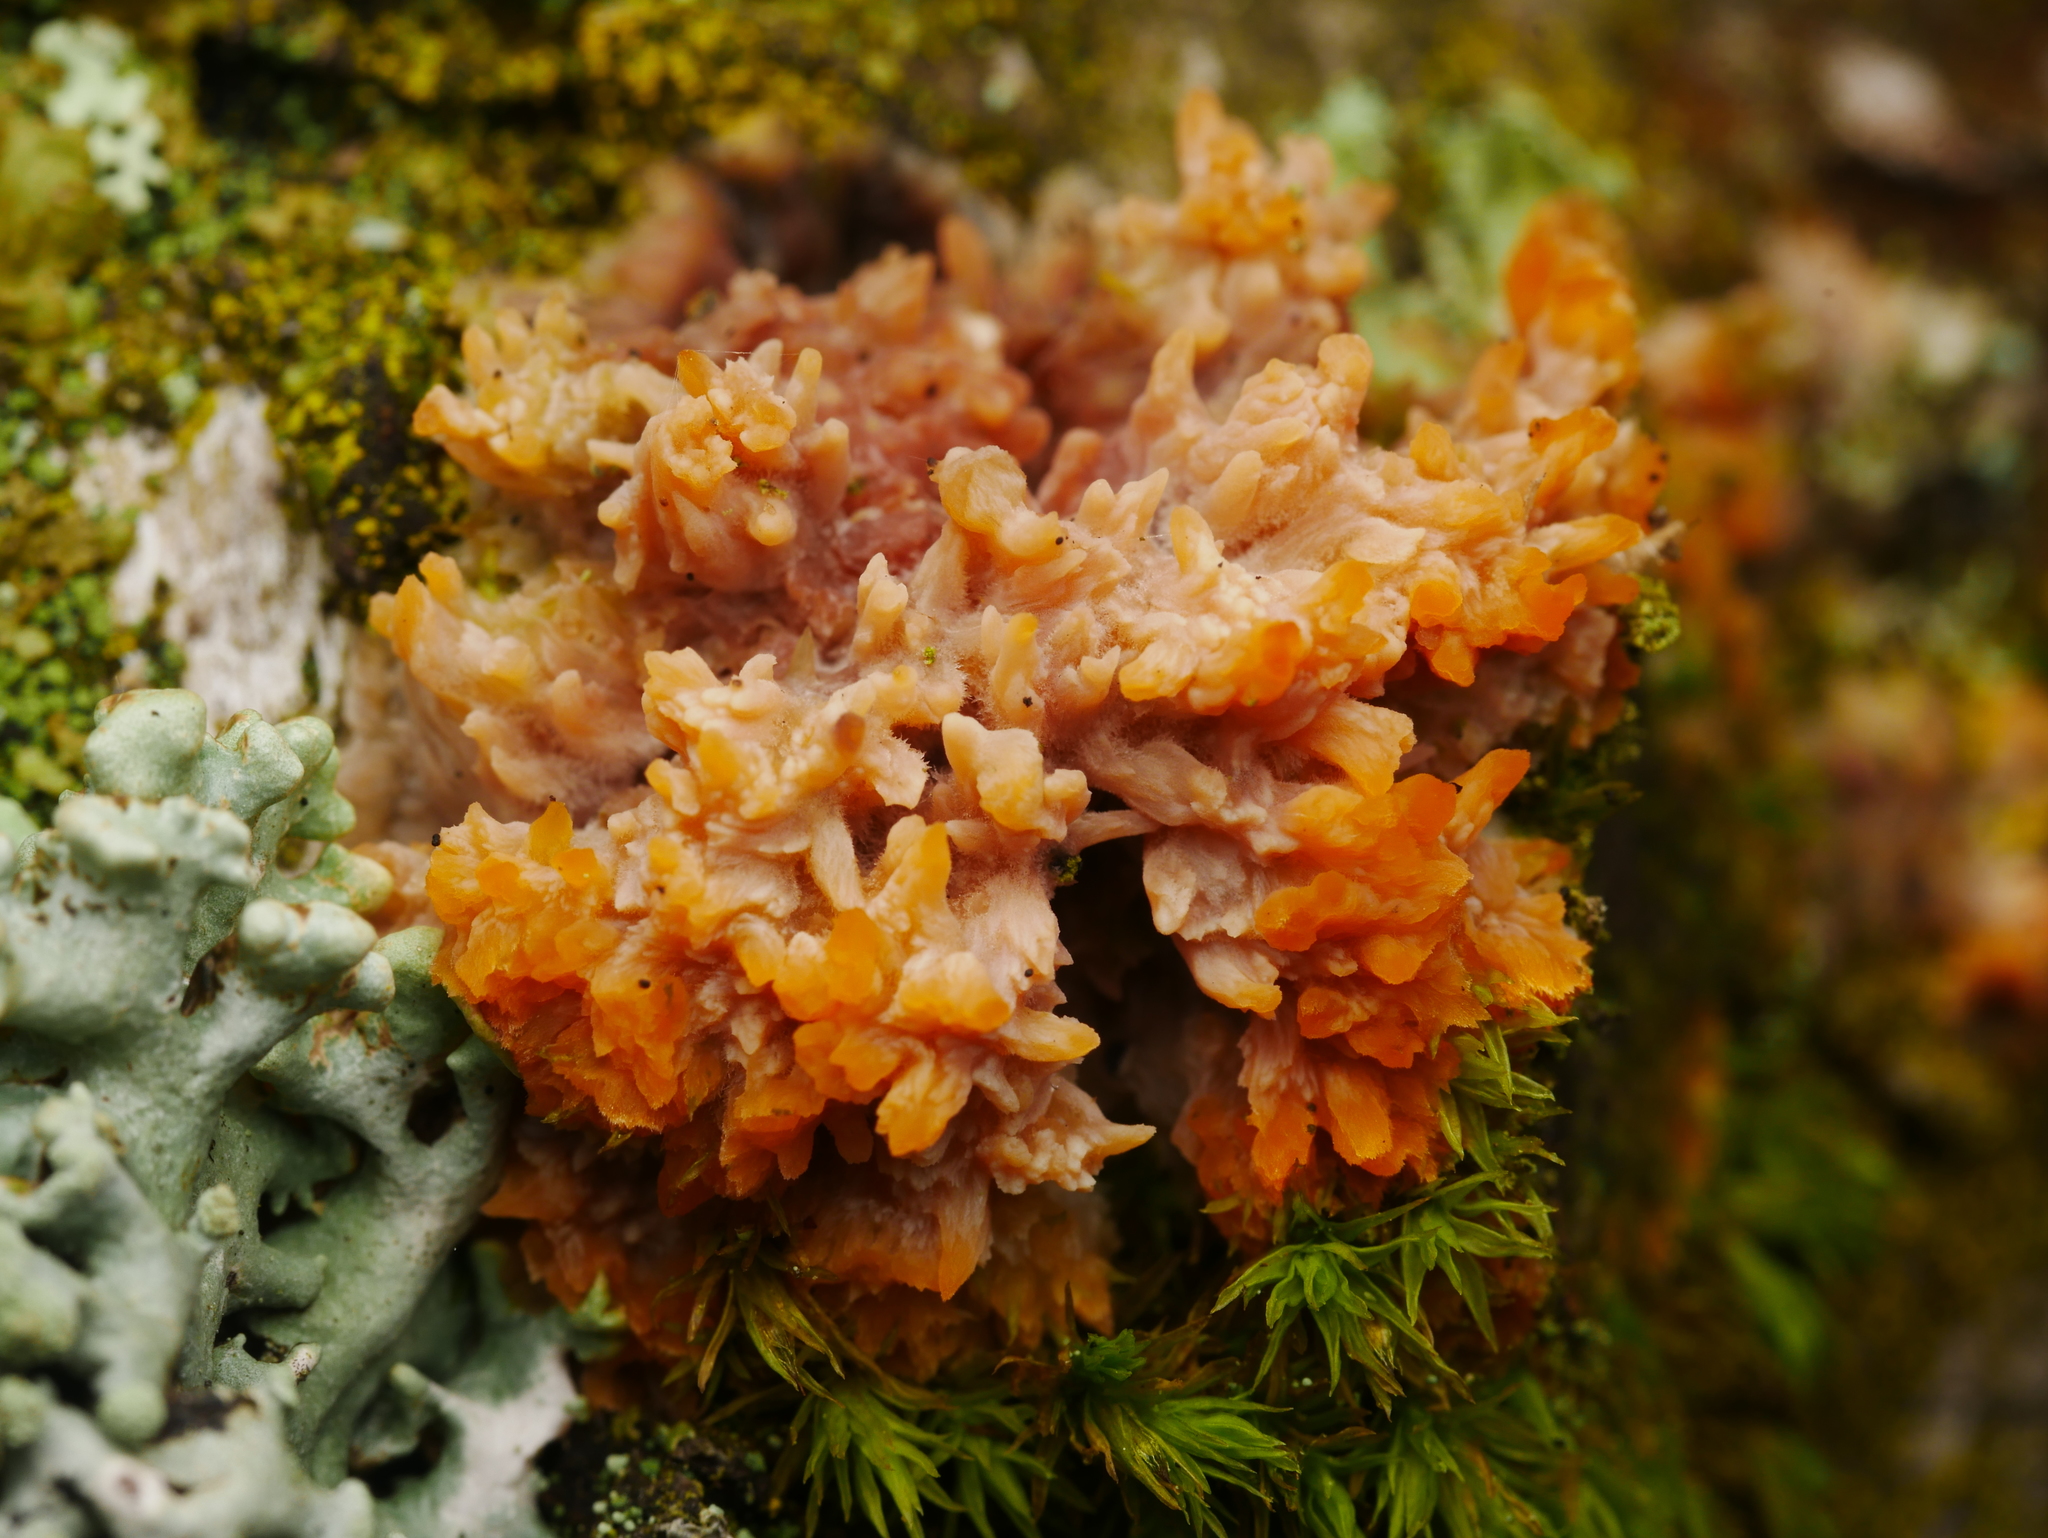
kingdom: Fungi
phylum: Basidiomycota
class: Agaricomycetes
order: Polyporales
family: Meruliaceae
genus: Phlebia
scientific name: Phlebia radiata
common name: Wrinkled crust
